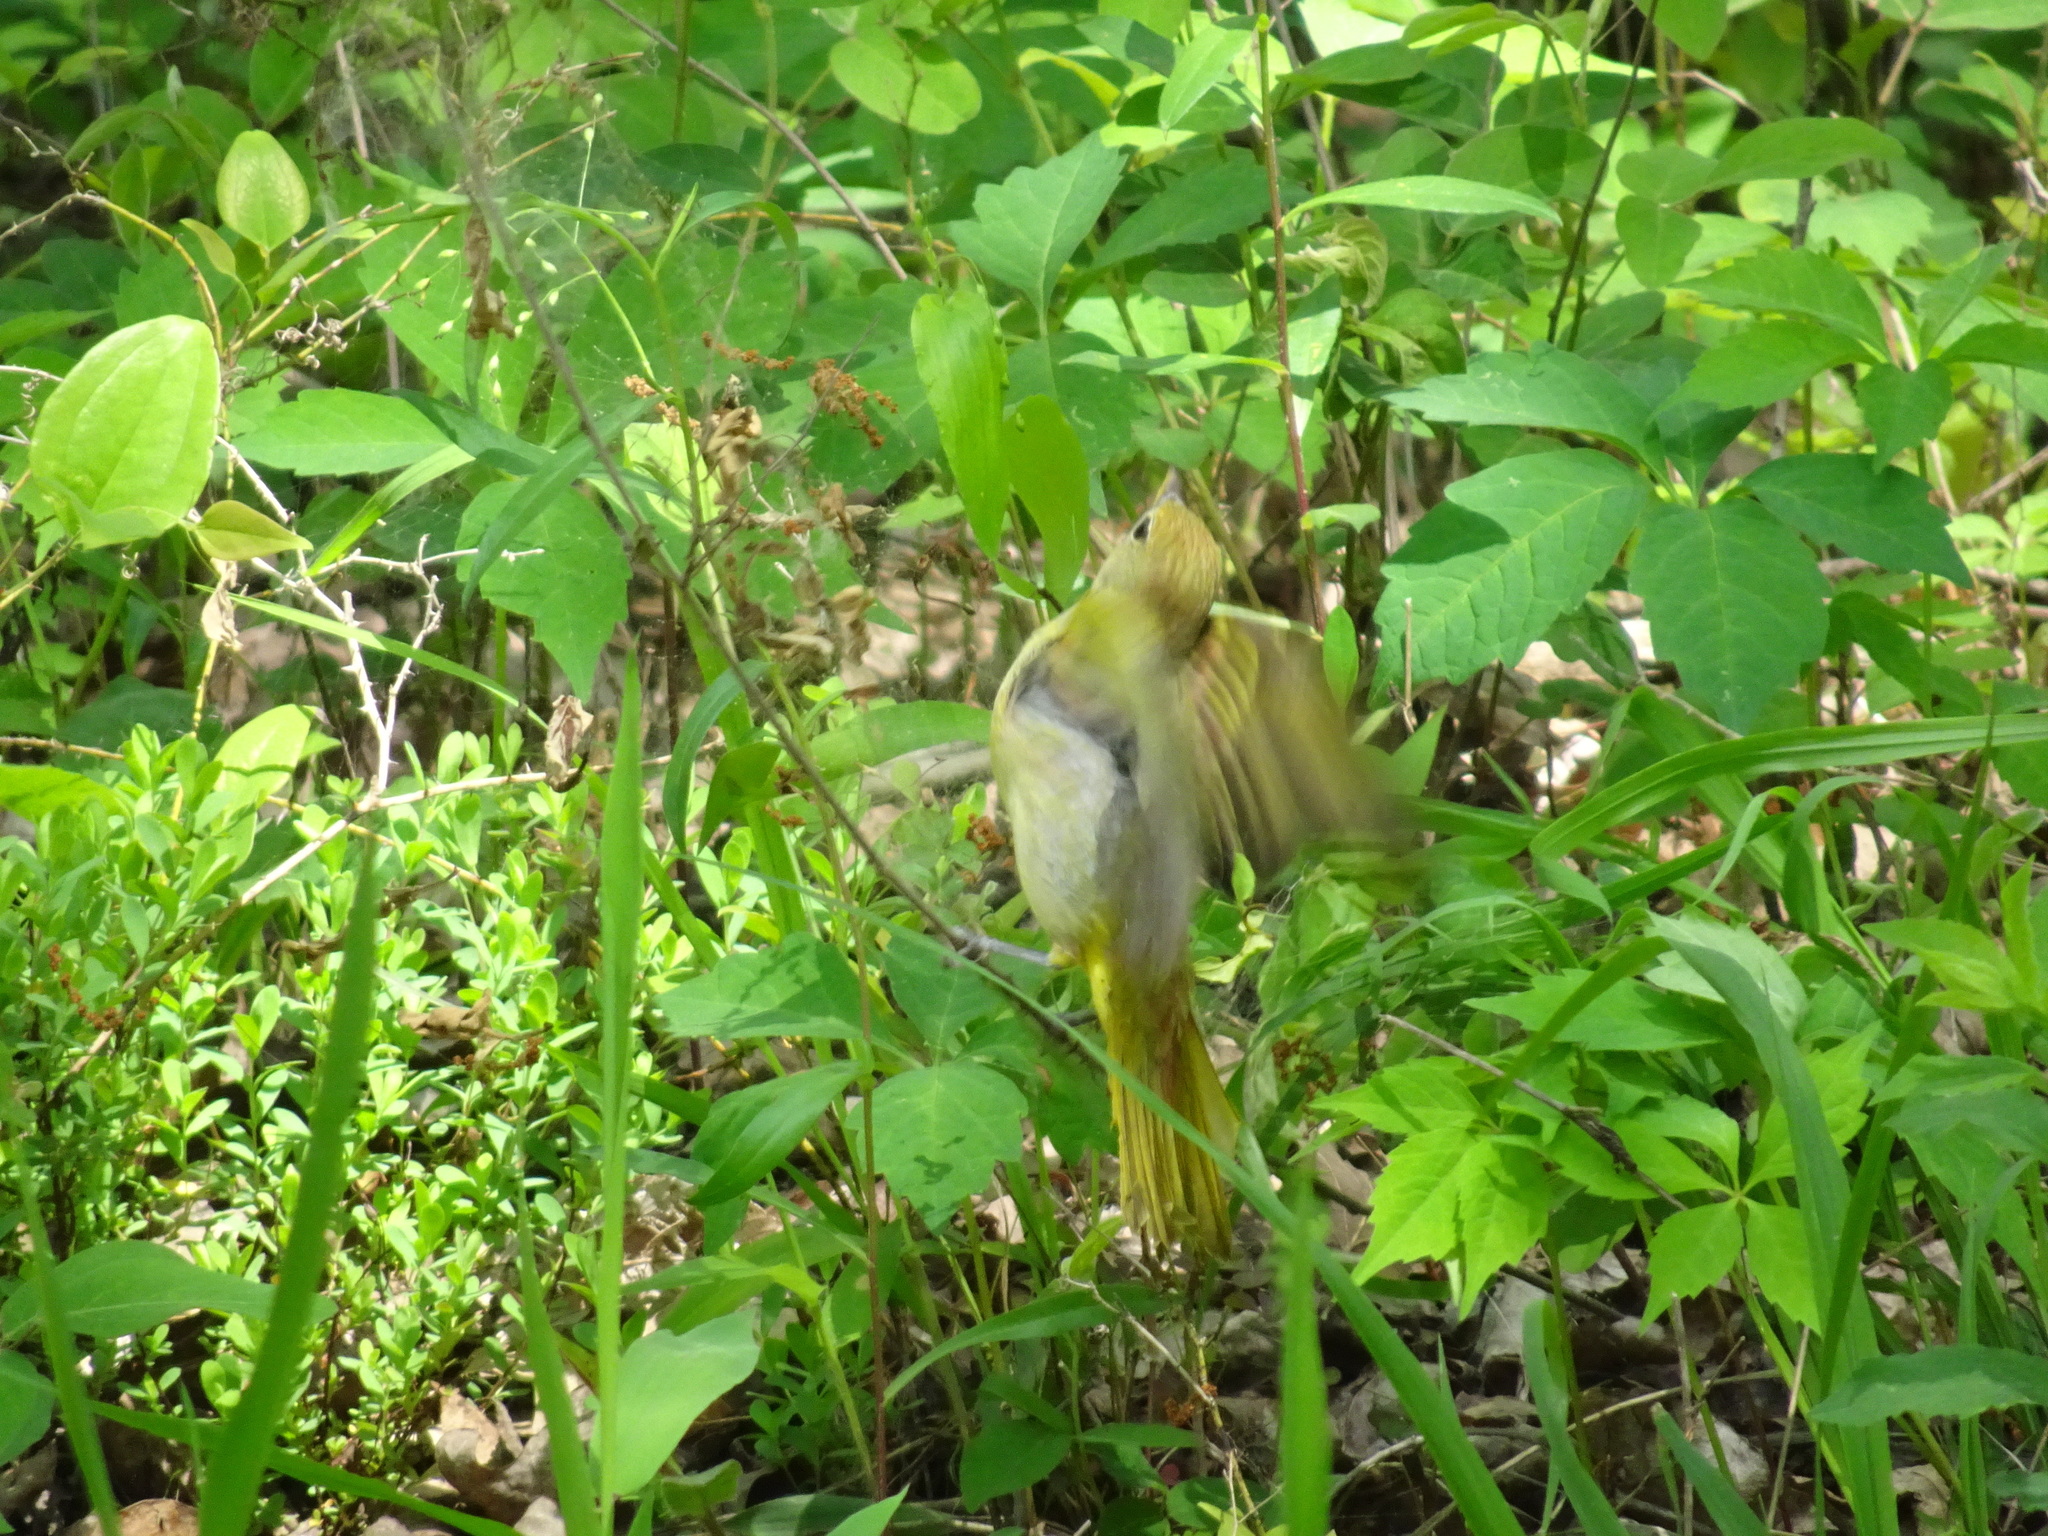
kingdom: Animalia
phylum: Chordata
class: Aves
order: Passeriformes
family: Cardinalidae
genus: Piranga
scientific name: Piranga rubra
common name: Summer tanager
